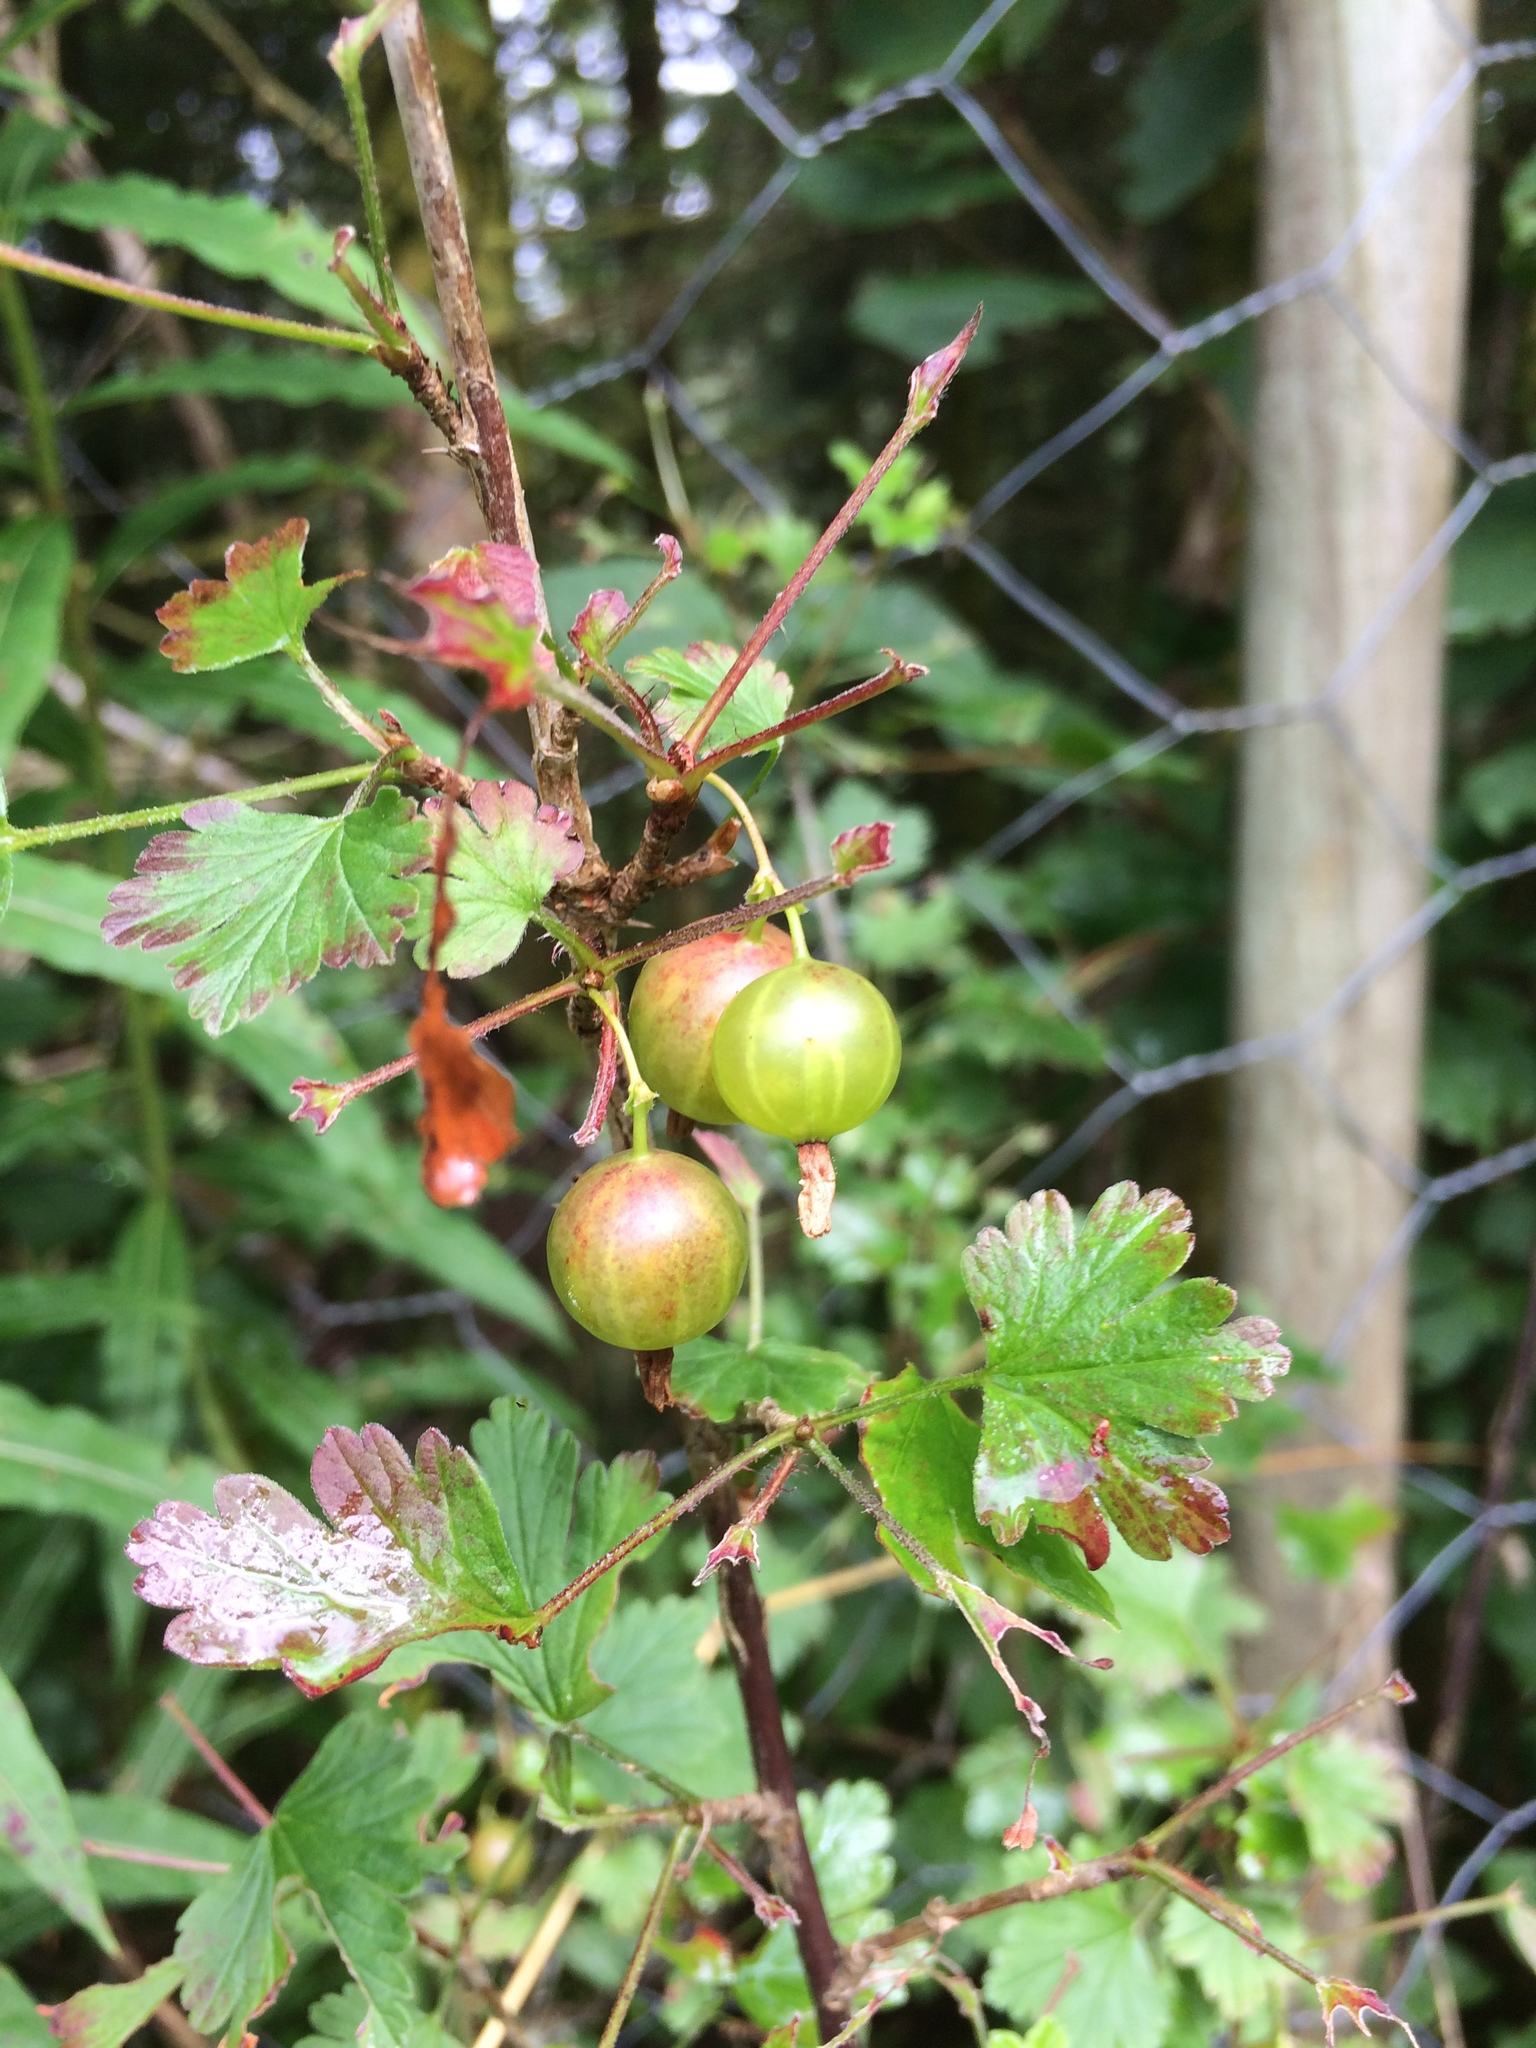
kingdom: Plantae
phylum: Tracheophyta
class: Magnoliopsida
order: Saxifragales
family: Grossulariaceae
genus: Ribes
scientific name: Ribes uva-crispa
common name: Gooseberry
